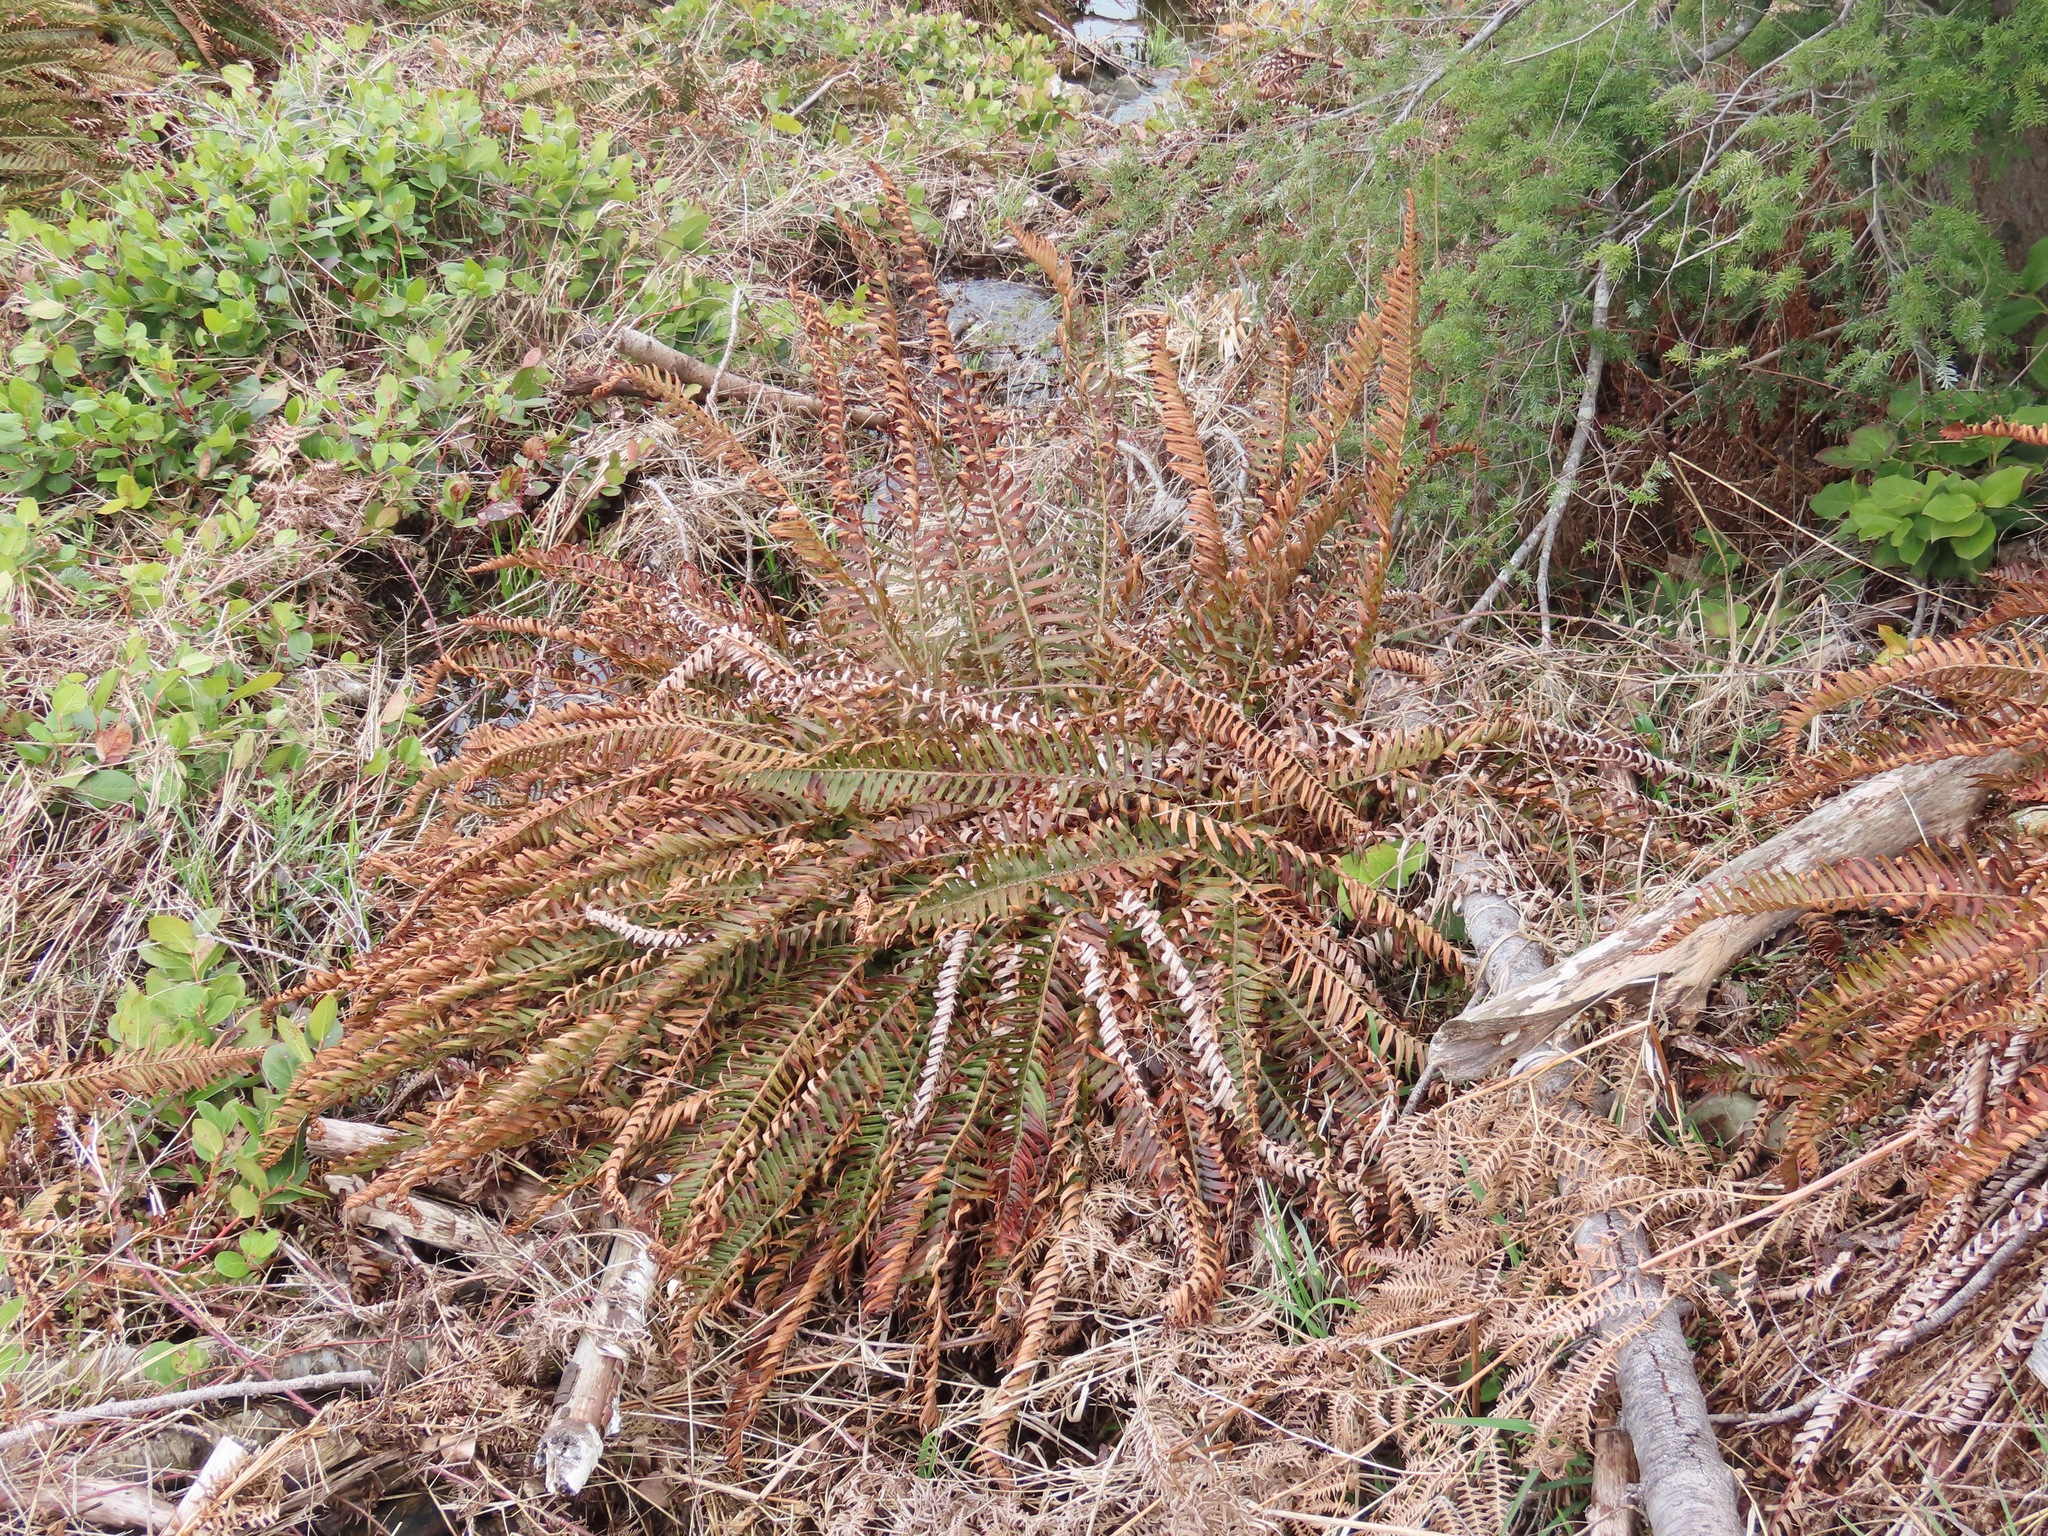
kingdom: Plantae
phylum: Tracheophyta
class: Polypodiopsida
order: Polypodiales
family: Dryopteridaceae
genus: Polystichum
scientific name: Polystichum munitum
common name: Western sword-fern
